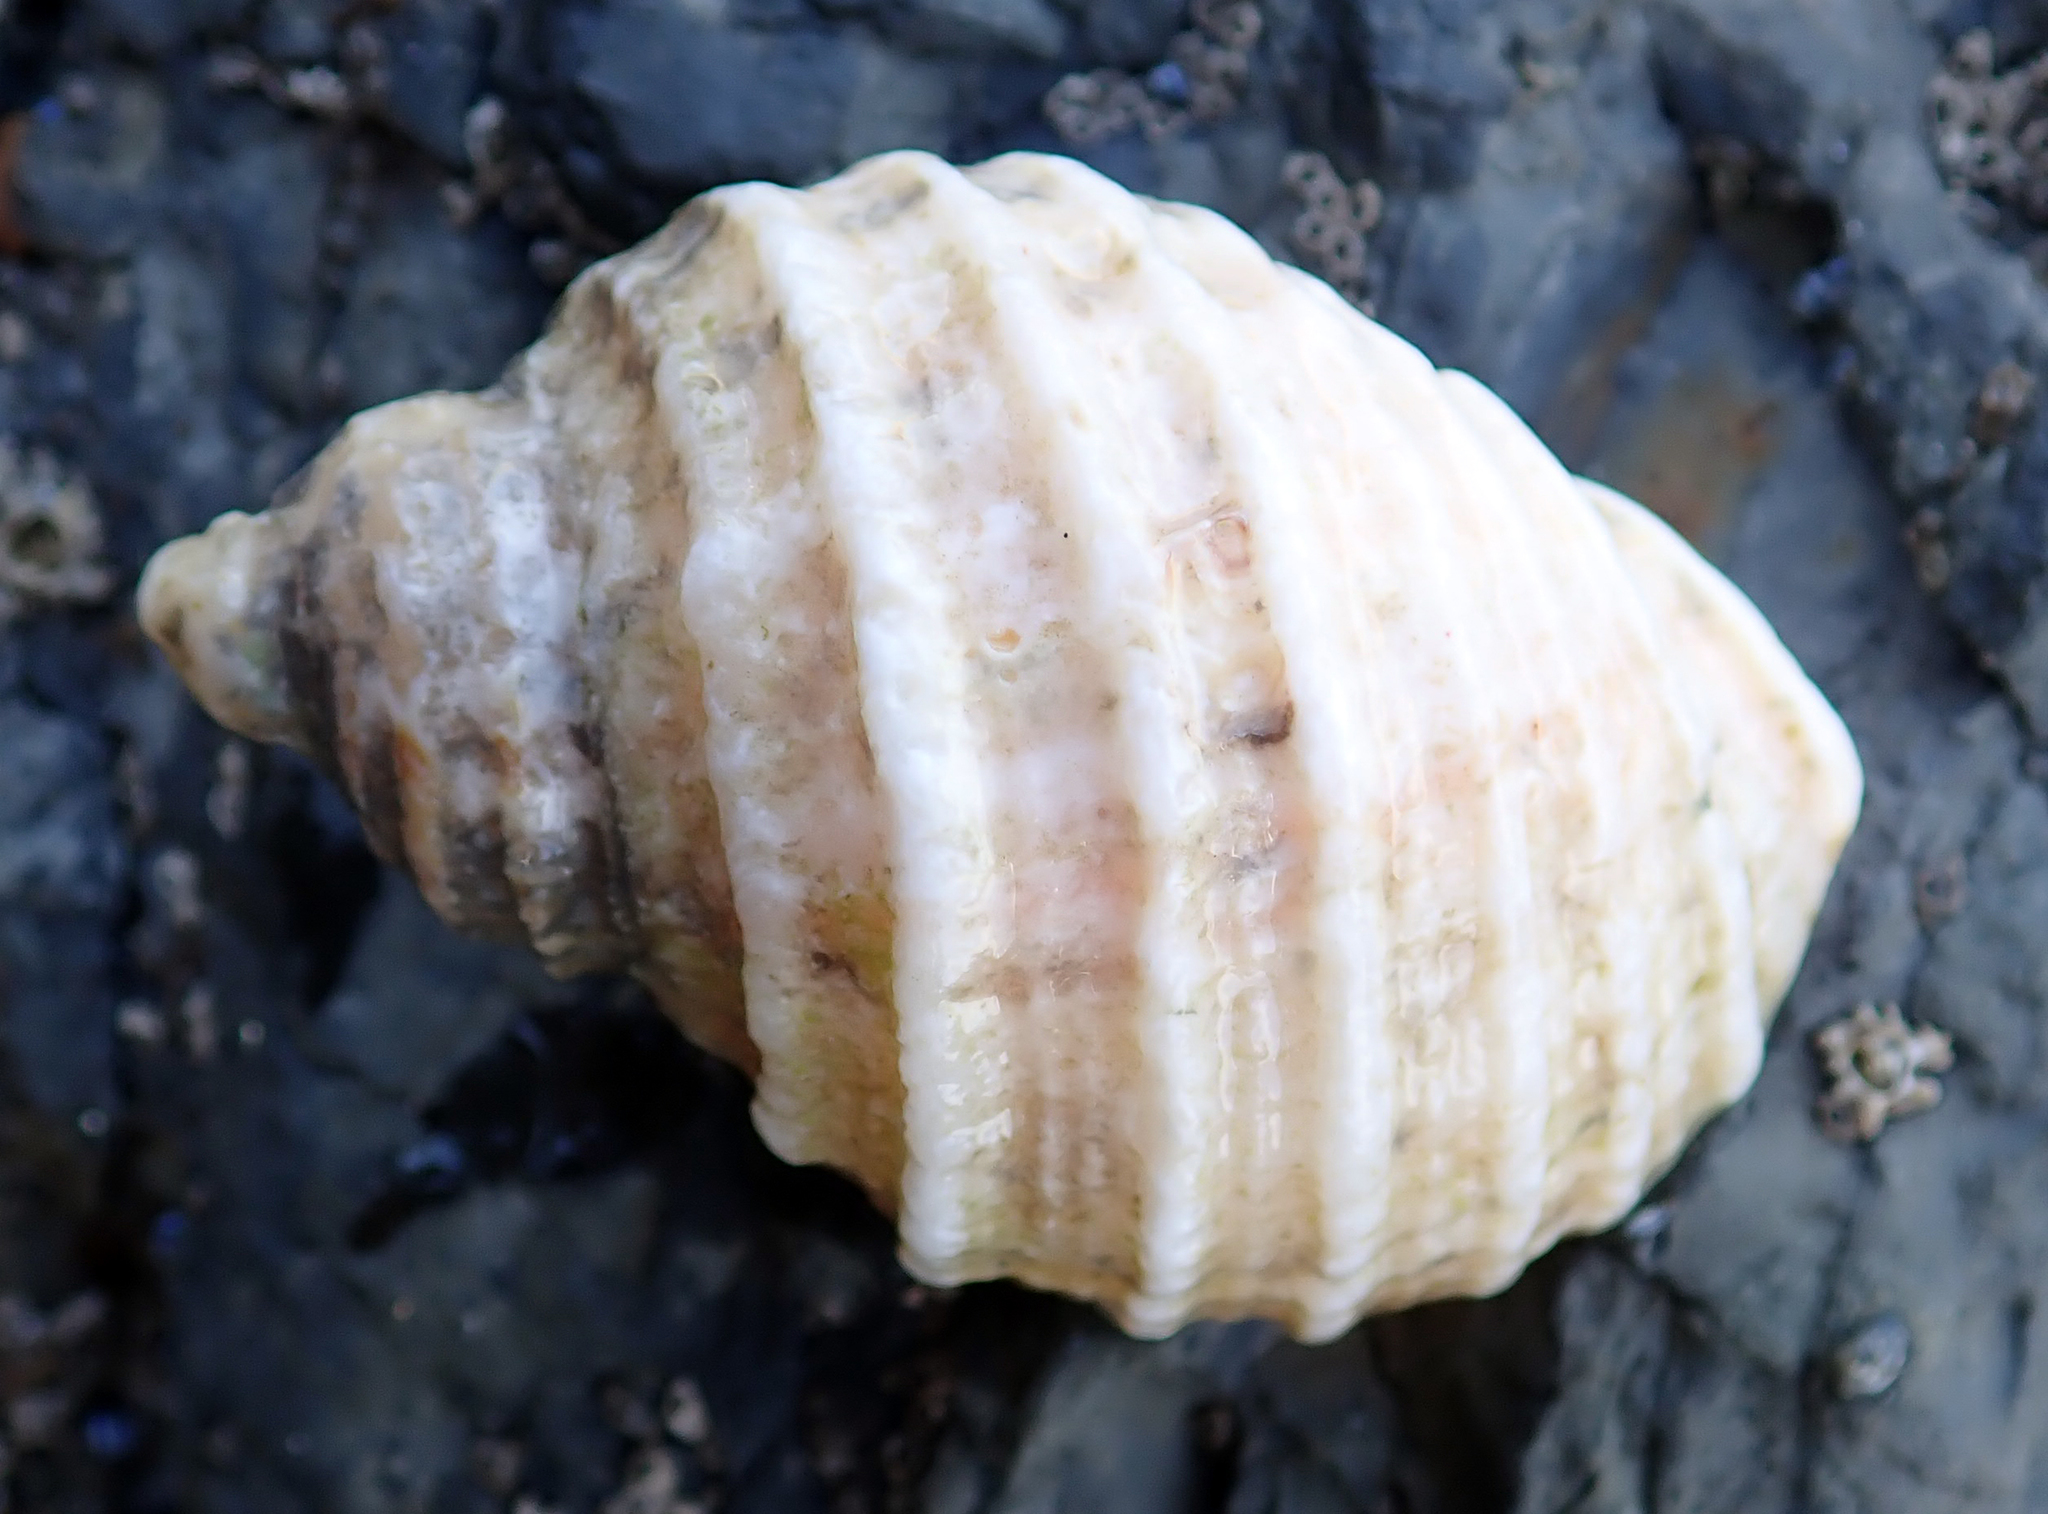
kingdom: Animalia
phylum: Mollusca
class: Gastropoda
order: Neogastropoda
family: Muricidae
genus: Dicathais
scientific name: Dicathais orbita
